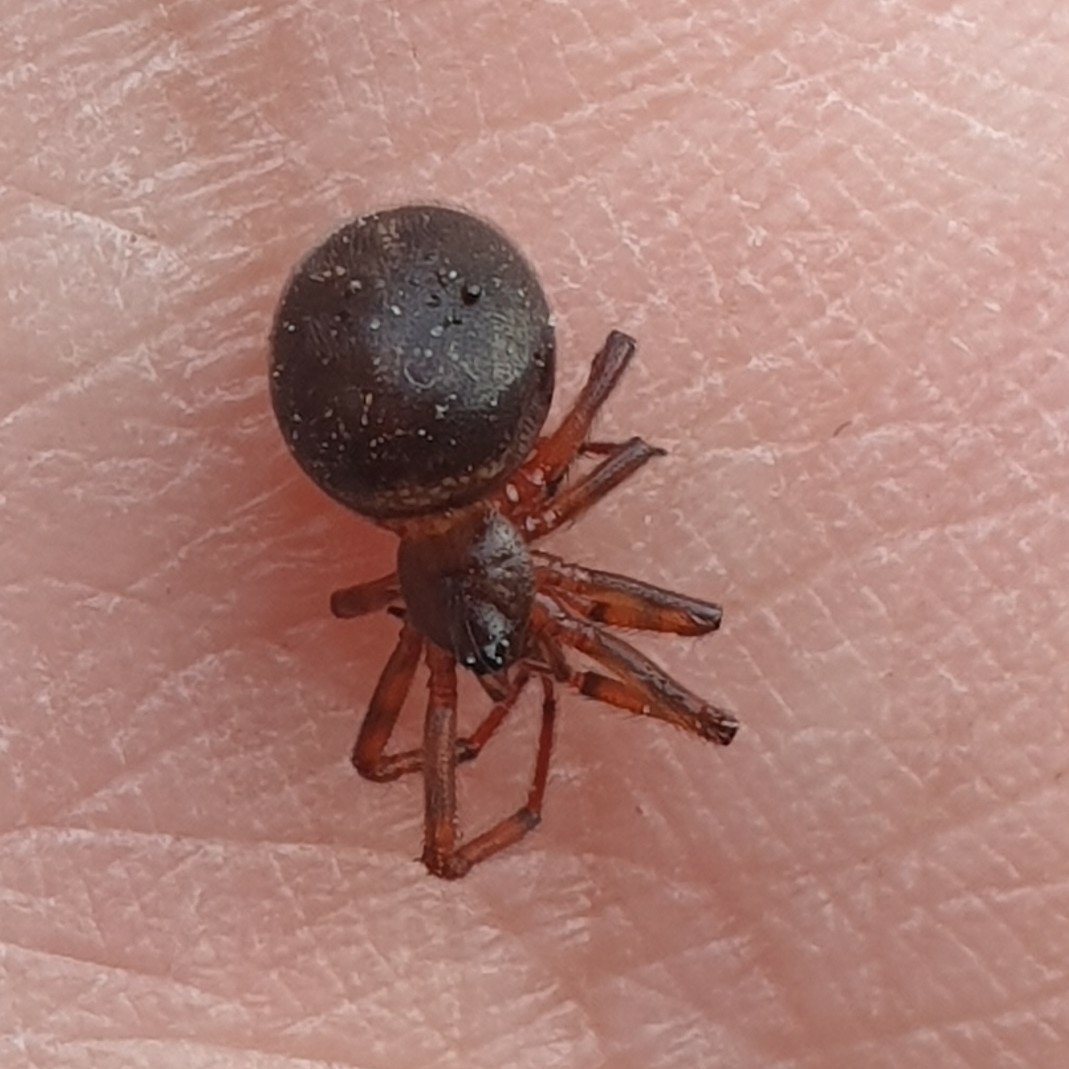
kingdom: Animalia
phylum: Arthropoda
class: Arachnida
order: Araneae
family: Theridiidae
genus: Steatoda
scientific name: Steatoda bipunctata
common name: False widow
